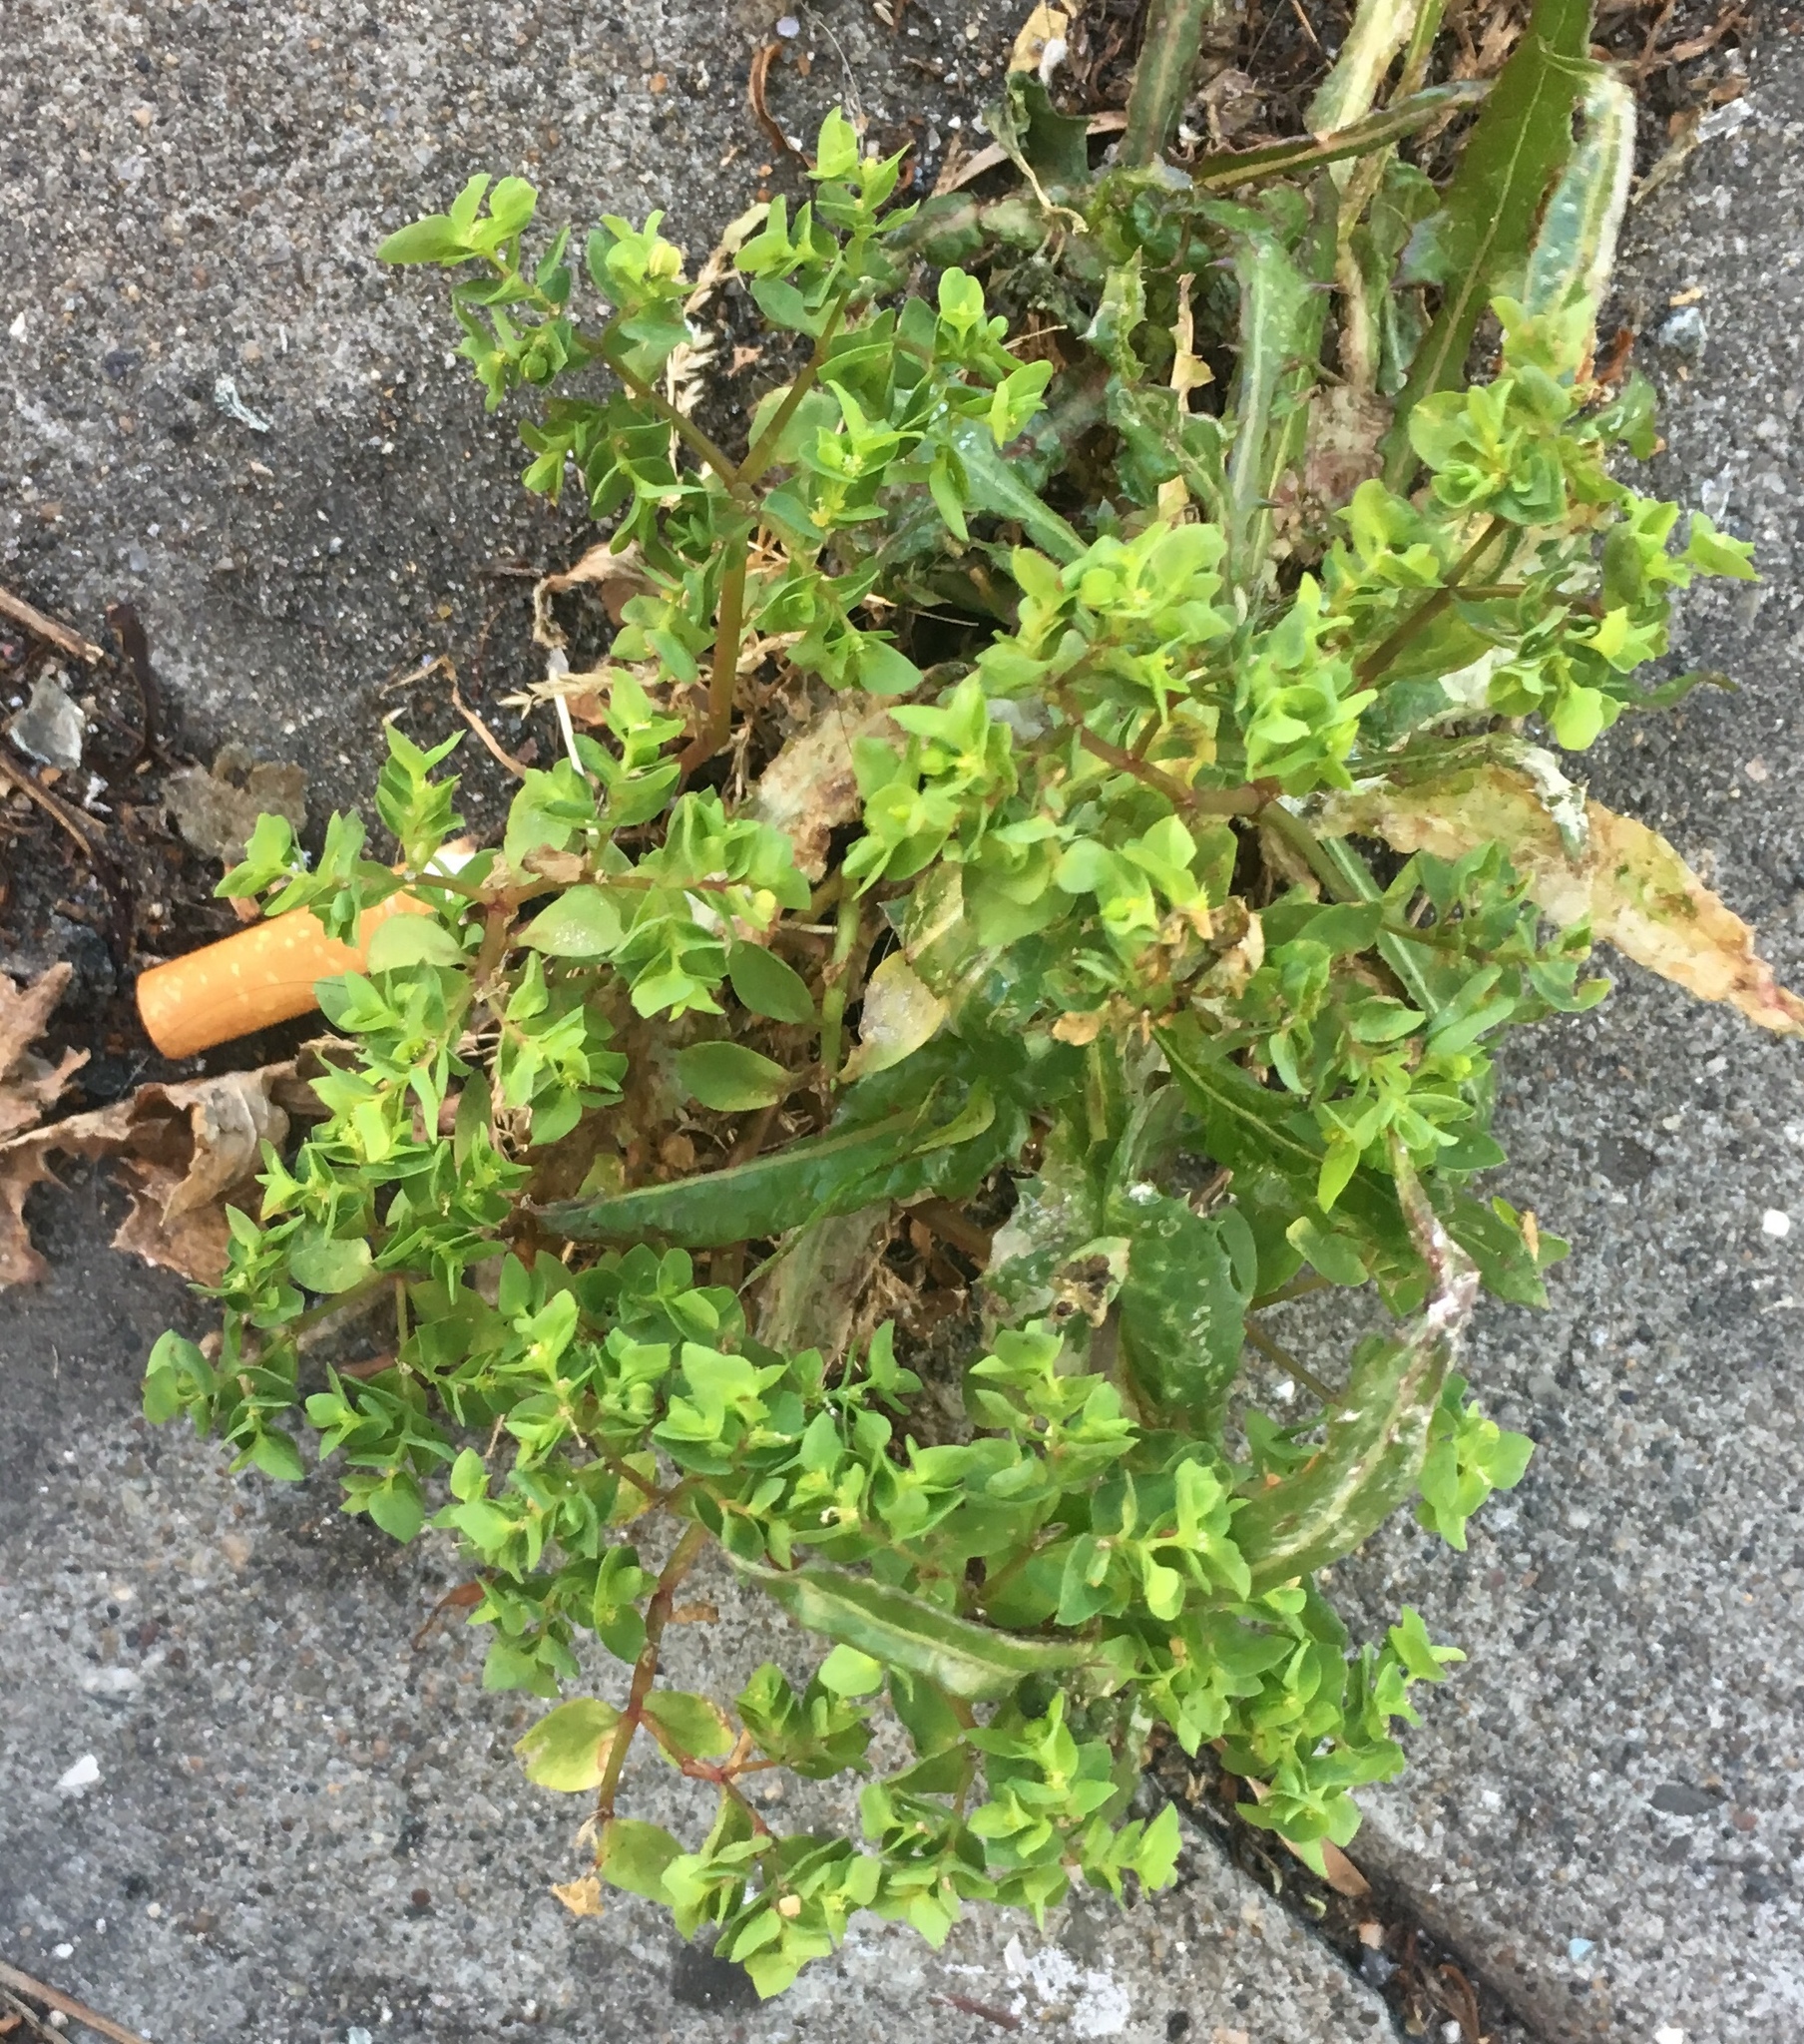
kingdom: Plantae
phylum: Tracheophyta
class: Magnoliopsida
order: Malpighiales
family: Euphorbiaceae
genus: Euphorbia
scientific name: Euphorbia peplus
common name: Petty spurge
